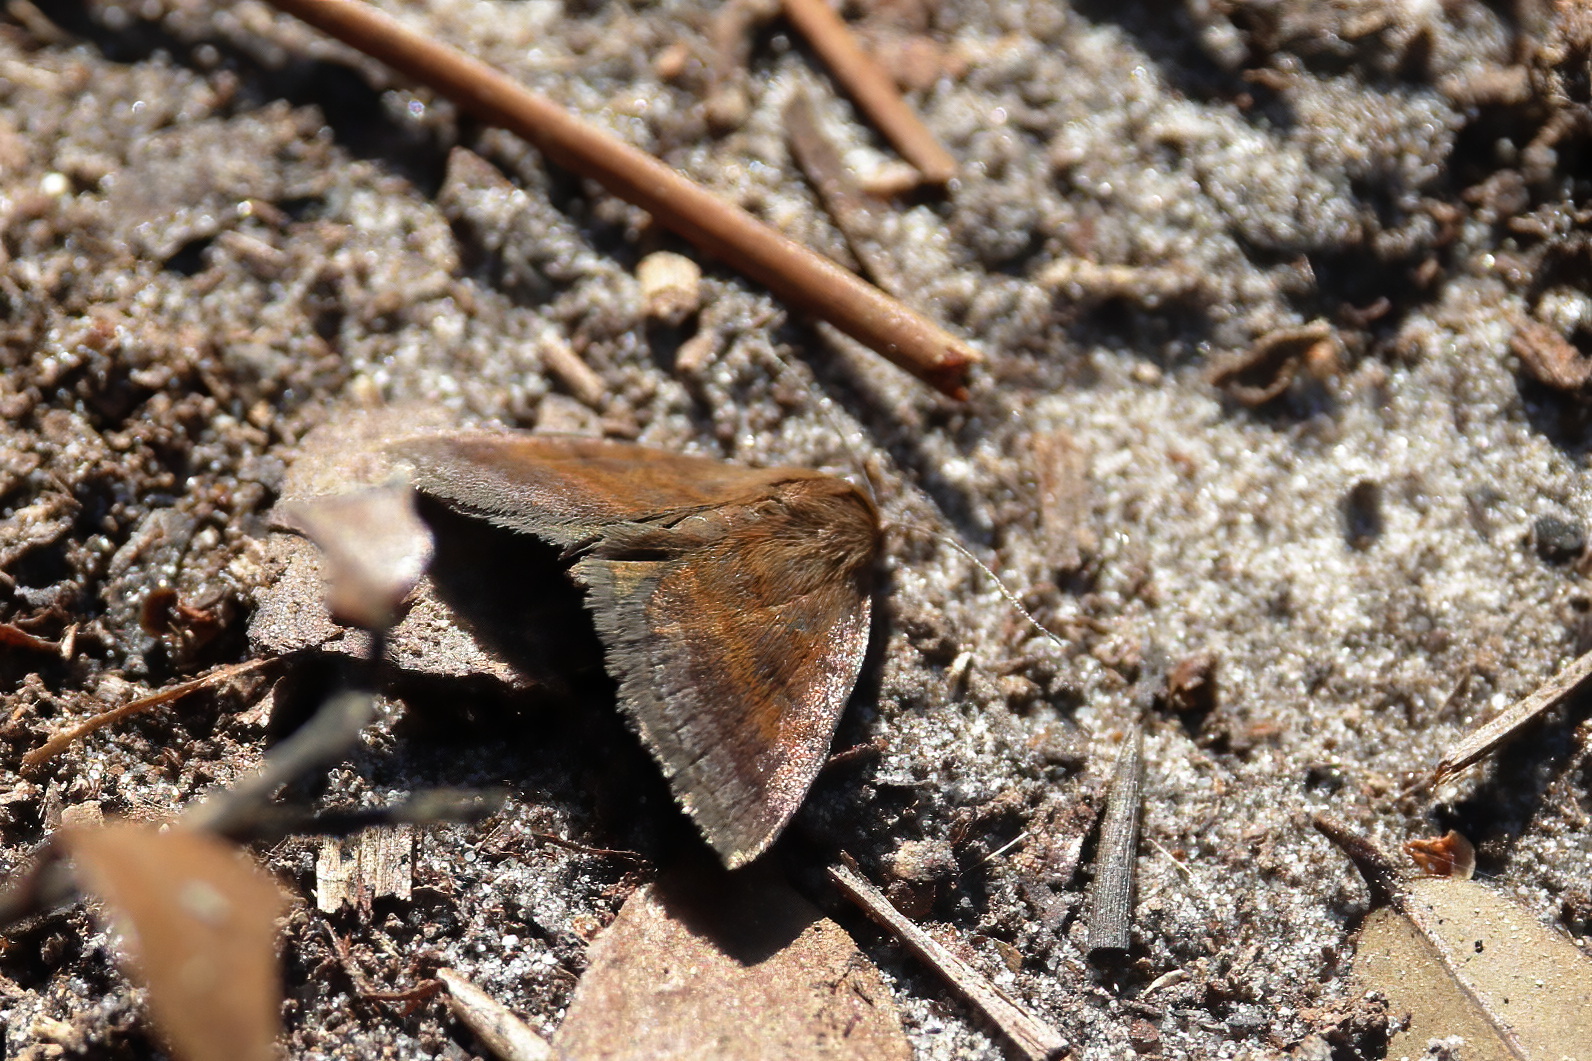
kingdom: Animalia
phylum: Arthropoda
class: Insecta
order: Lepidoptera
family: Erebidae
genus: Argyrostrotis
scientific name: Argyrostrotis deleta
